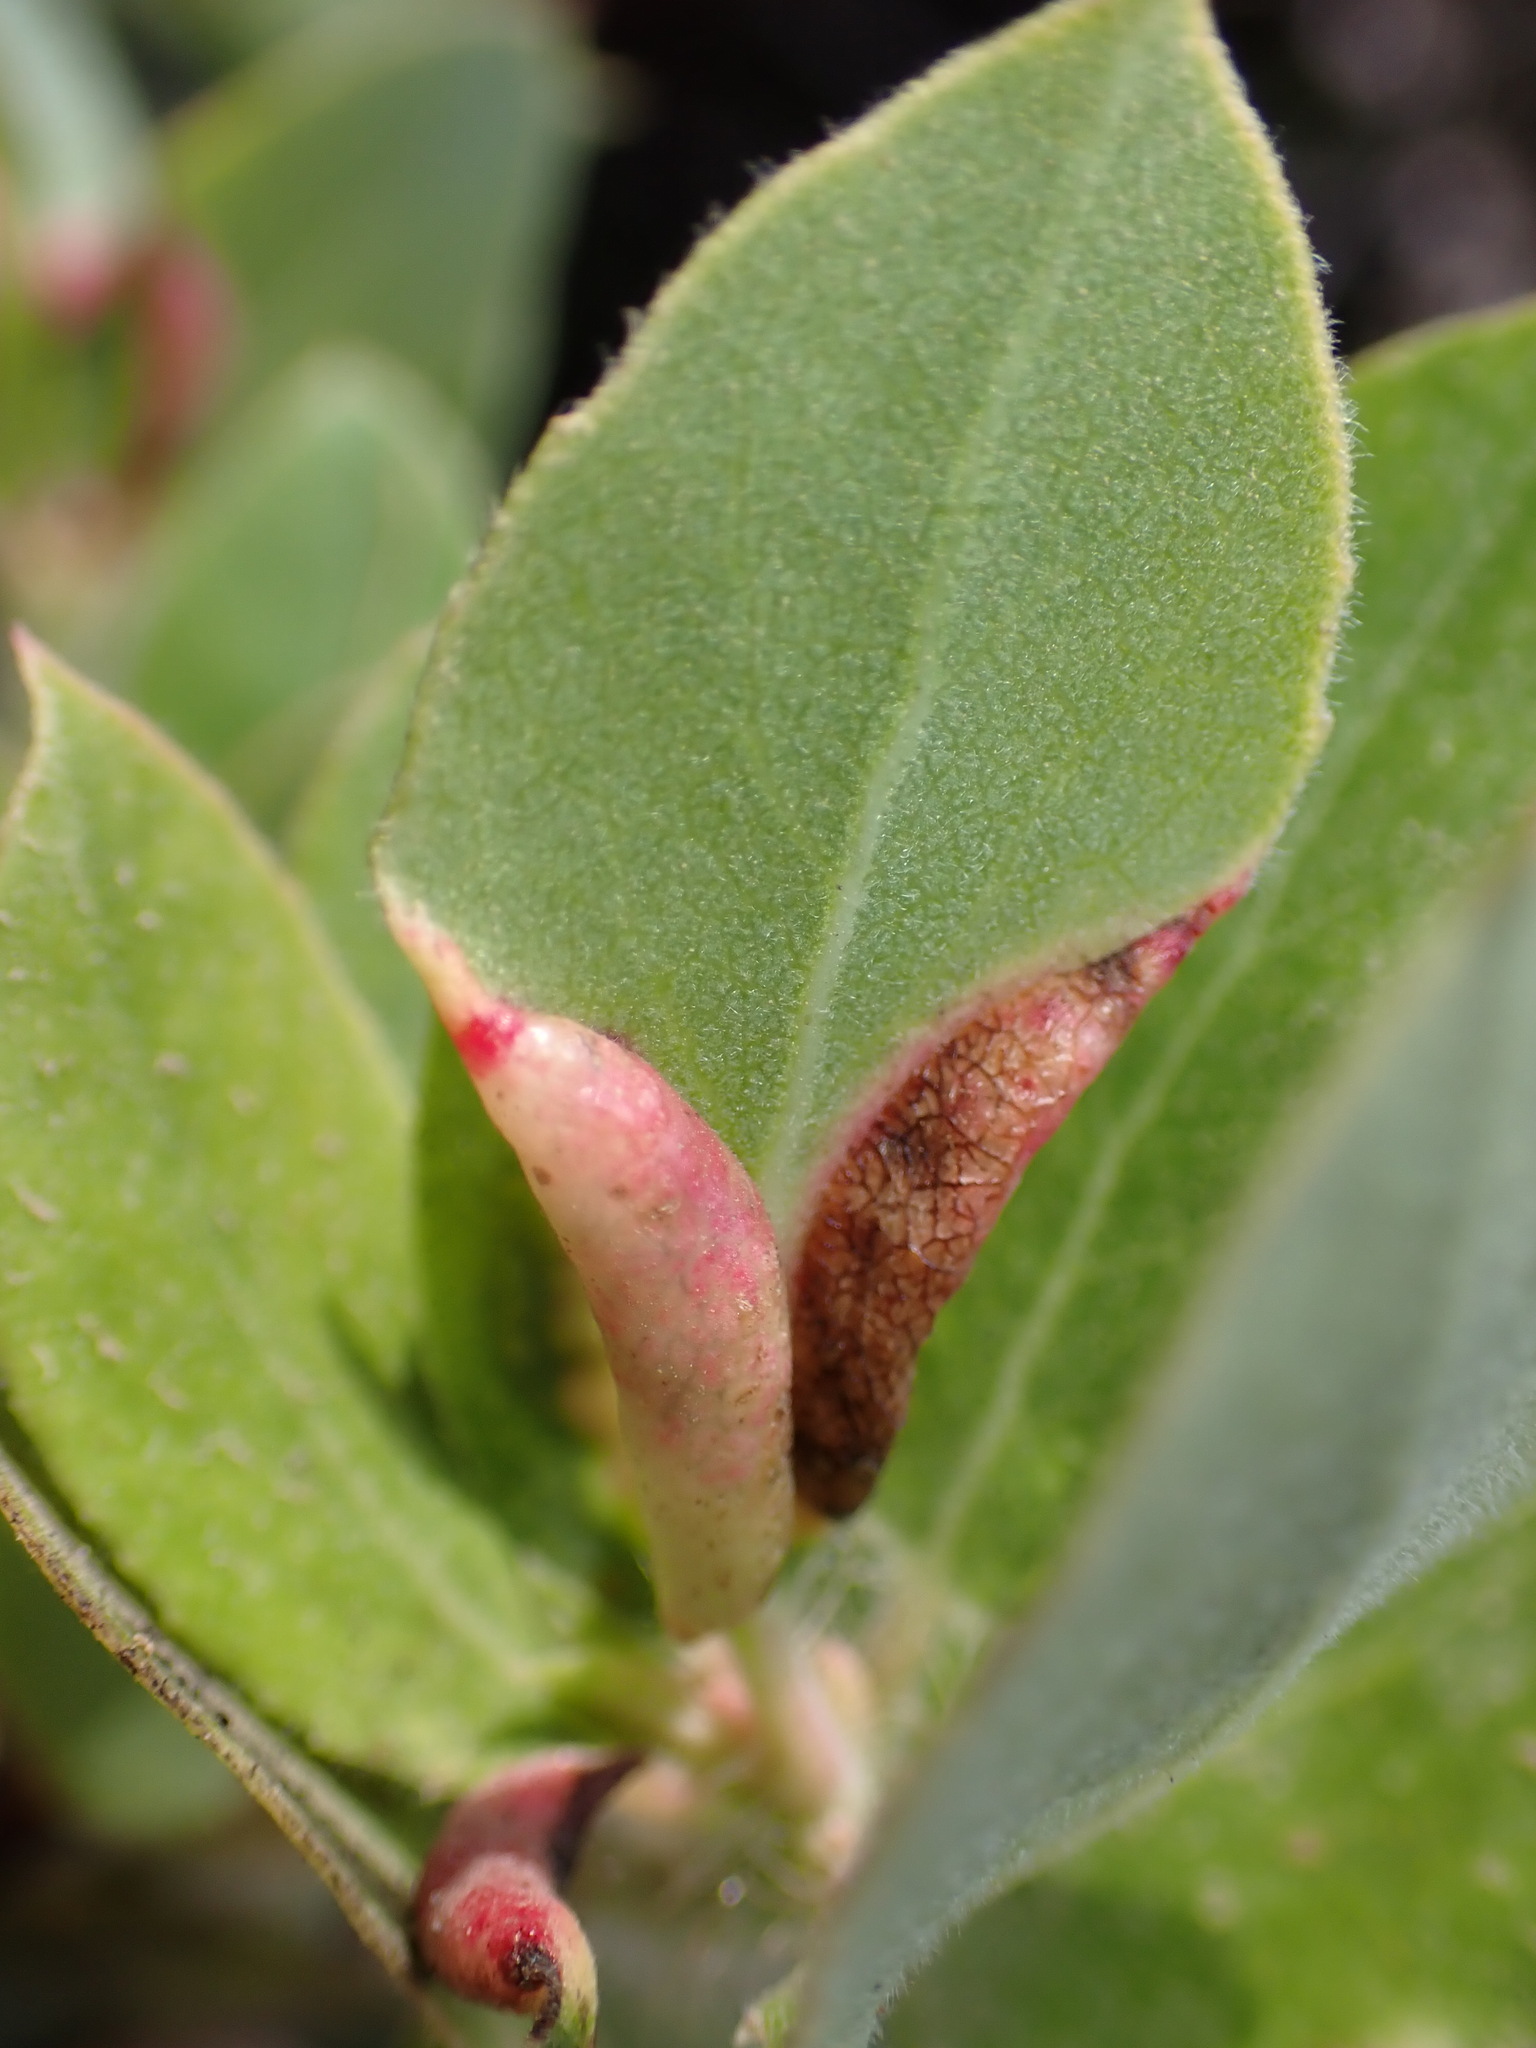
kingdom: Animalia
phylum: Arthropoda
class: Insecta
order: Hemiptera
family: Aphididae
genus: Tamalia
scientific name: Tamalia coweni
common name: Manzanita leafgall aphid
